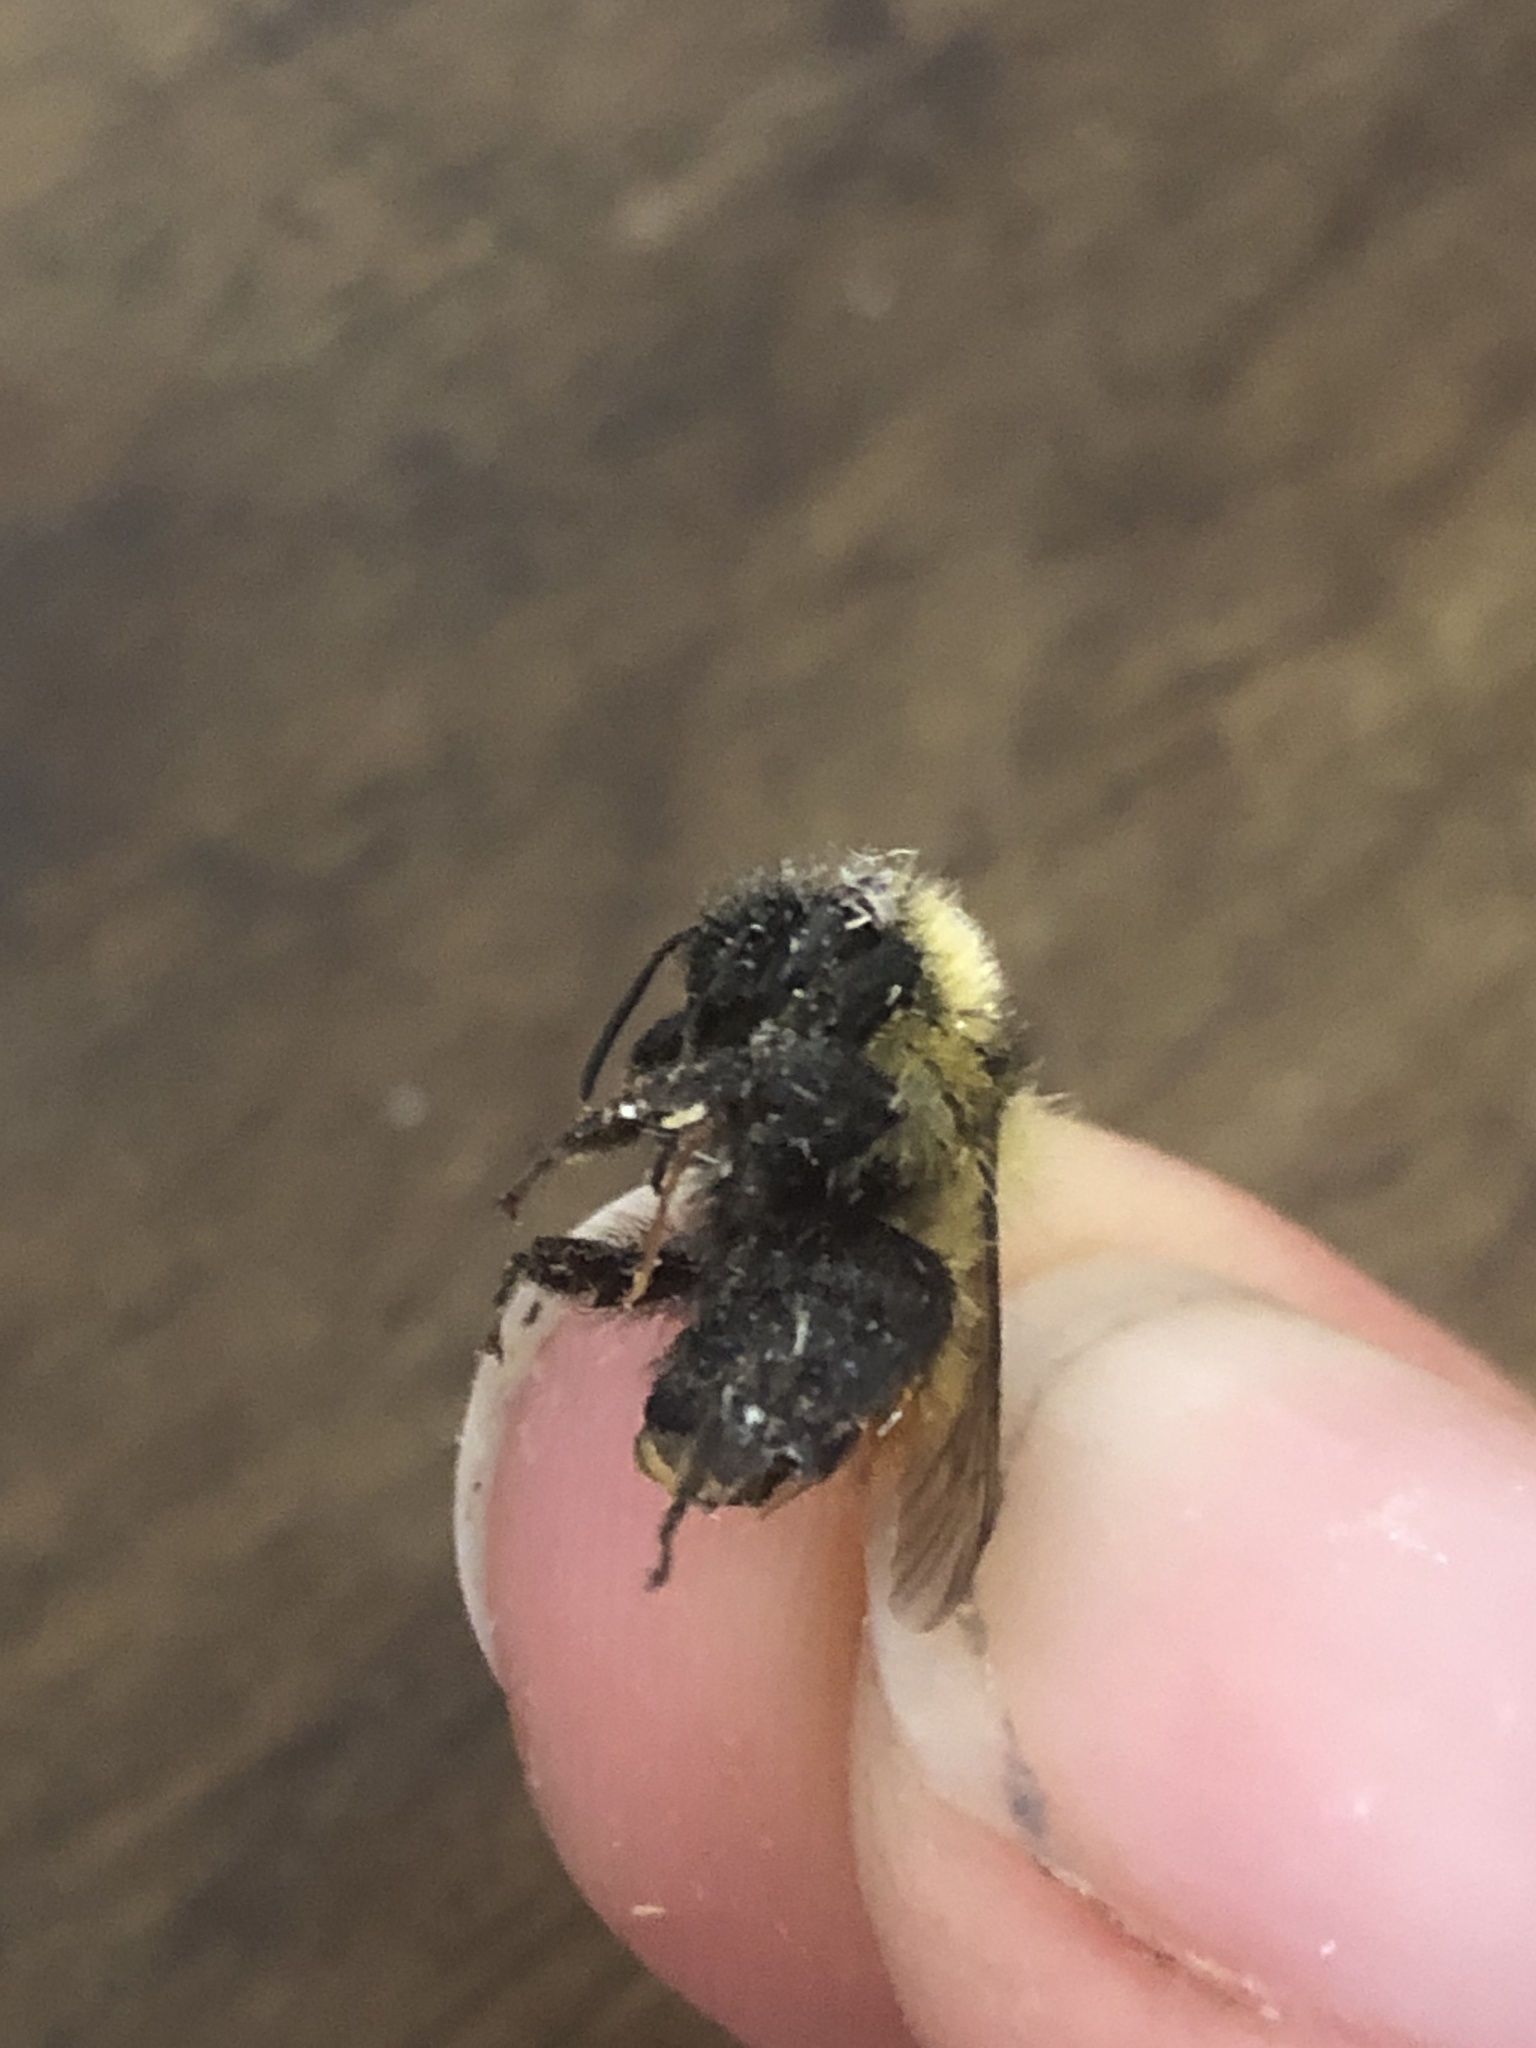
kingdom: Animalia
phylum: Arthropoda
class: Insecta
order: Hymenoptera
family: Apidae
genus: Bombus
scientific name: Bombus rufocinctus
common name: Red-belted bumble bee
